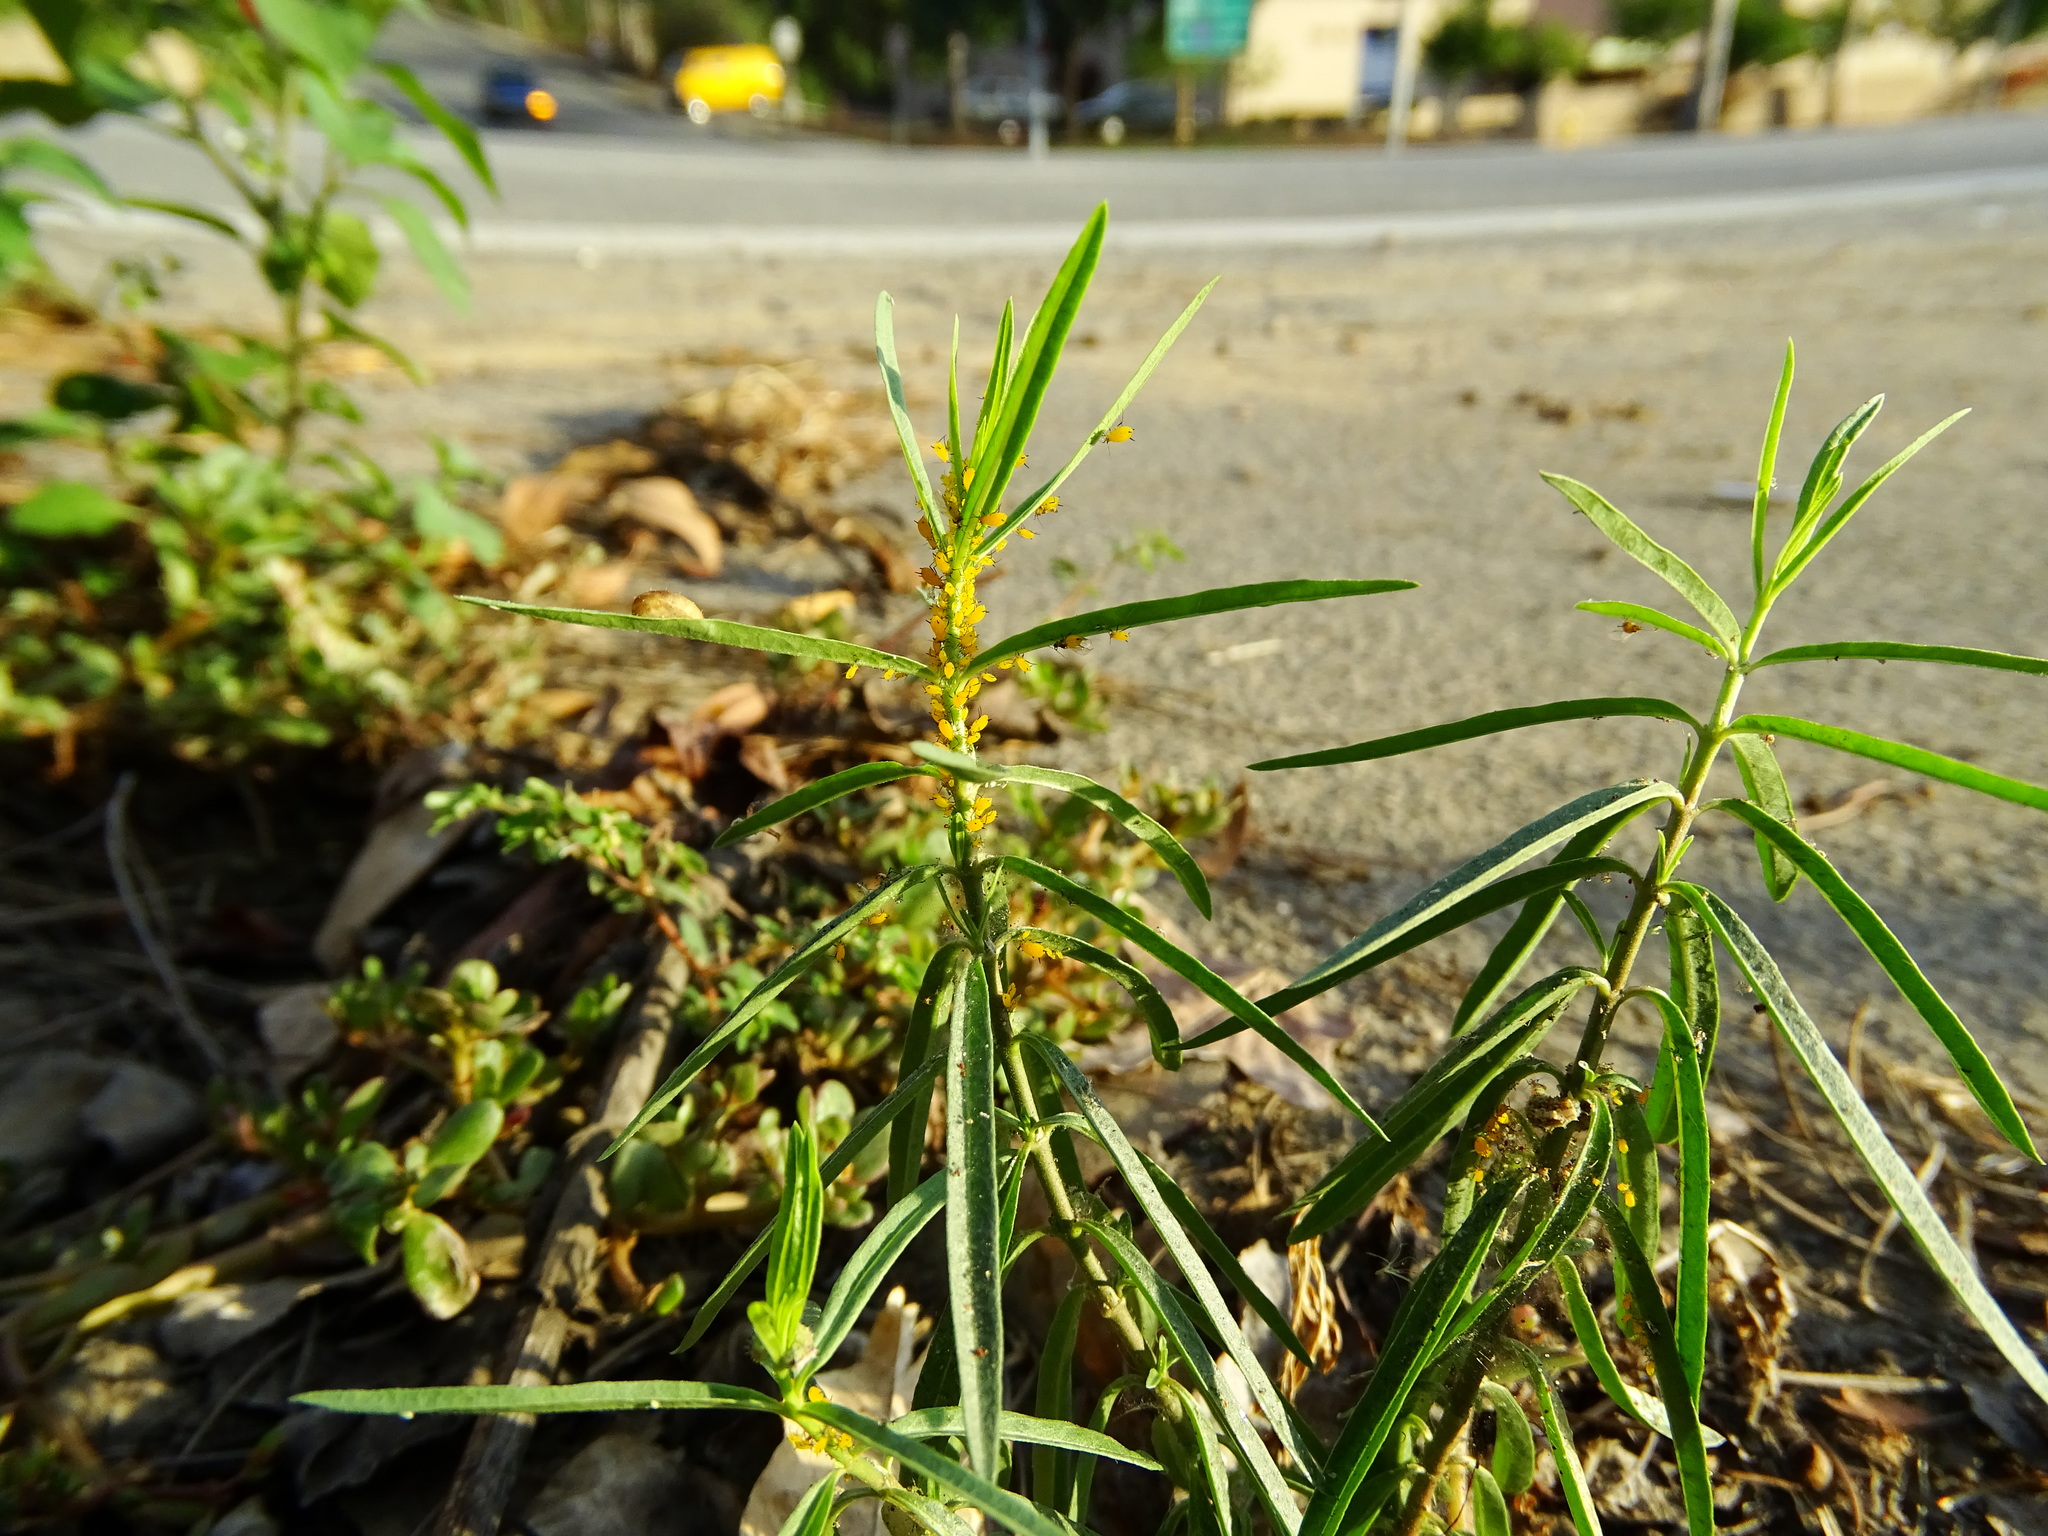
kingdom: Plantae
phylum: Tracheophyta
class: Magnoliopsida
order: Gentianales
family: Apocynaceae
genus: Asclepias
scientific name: Asclepias fascicularis
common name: Mexican milkweed
